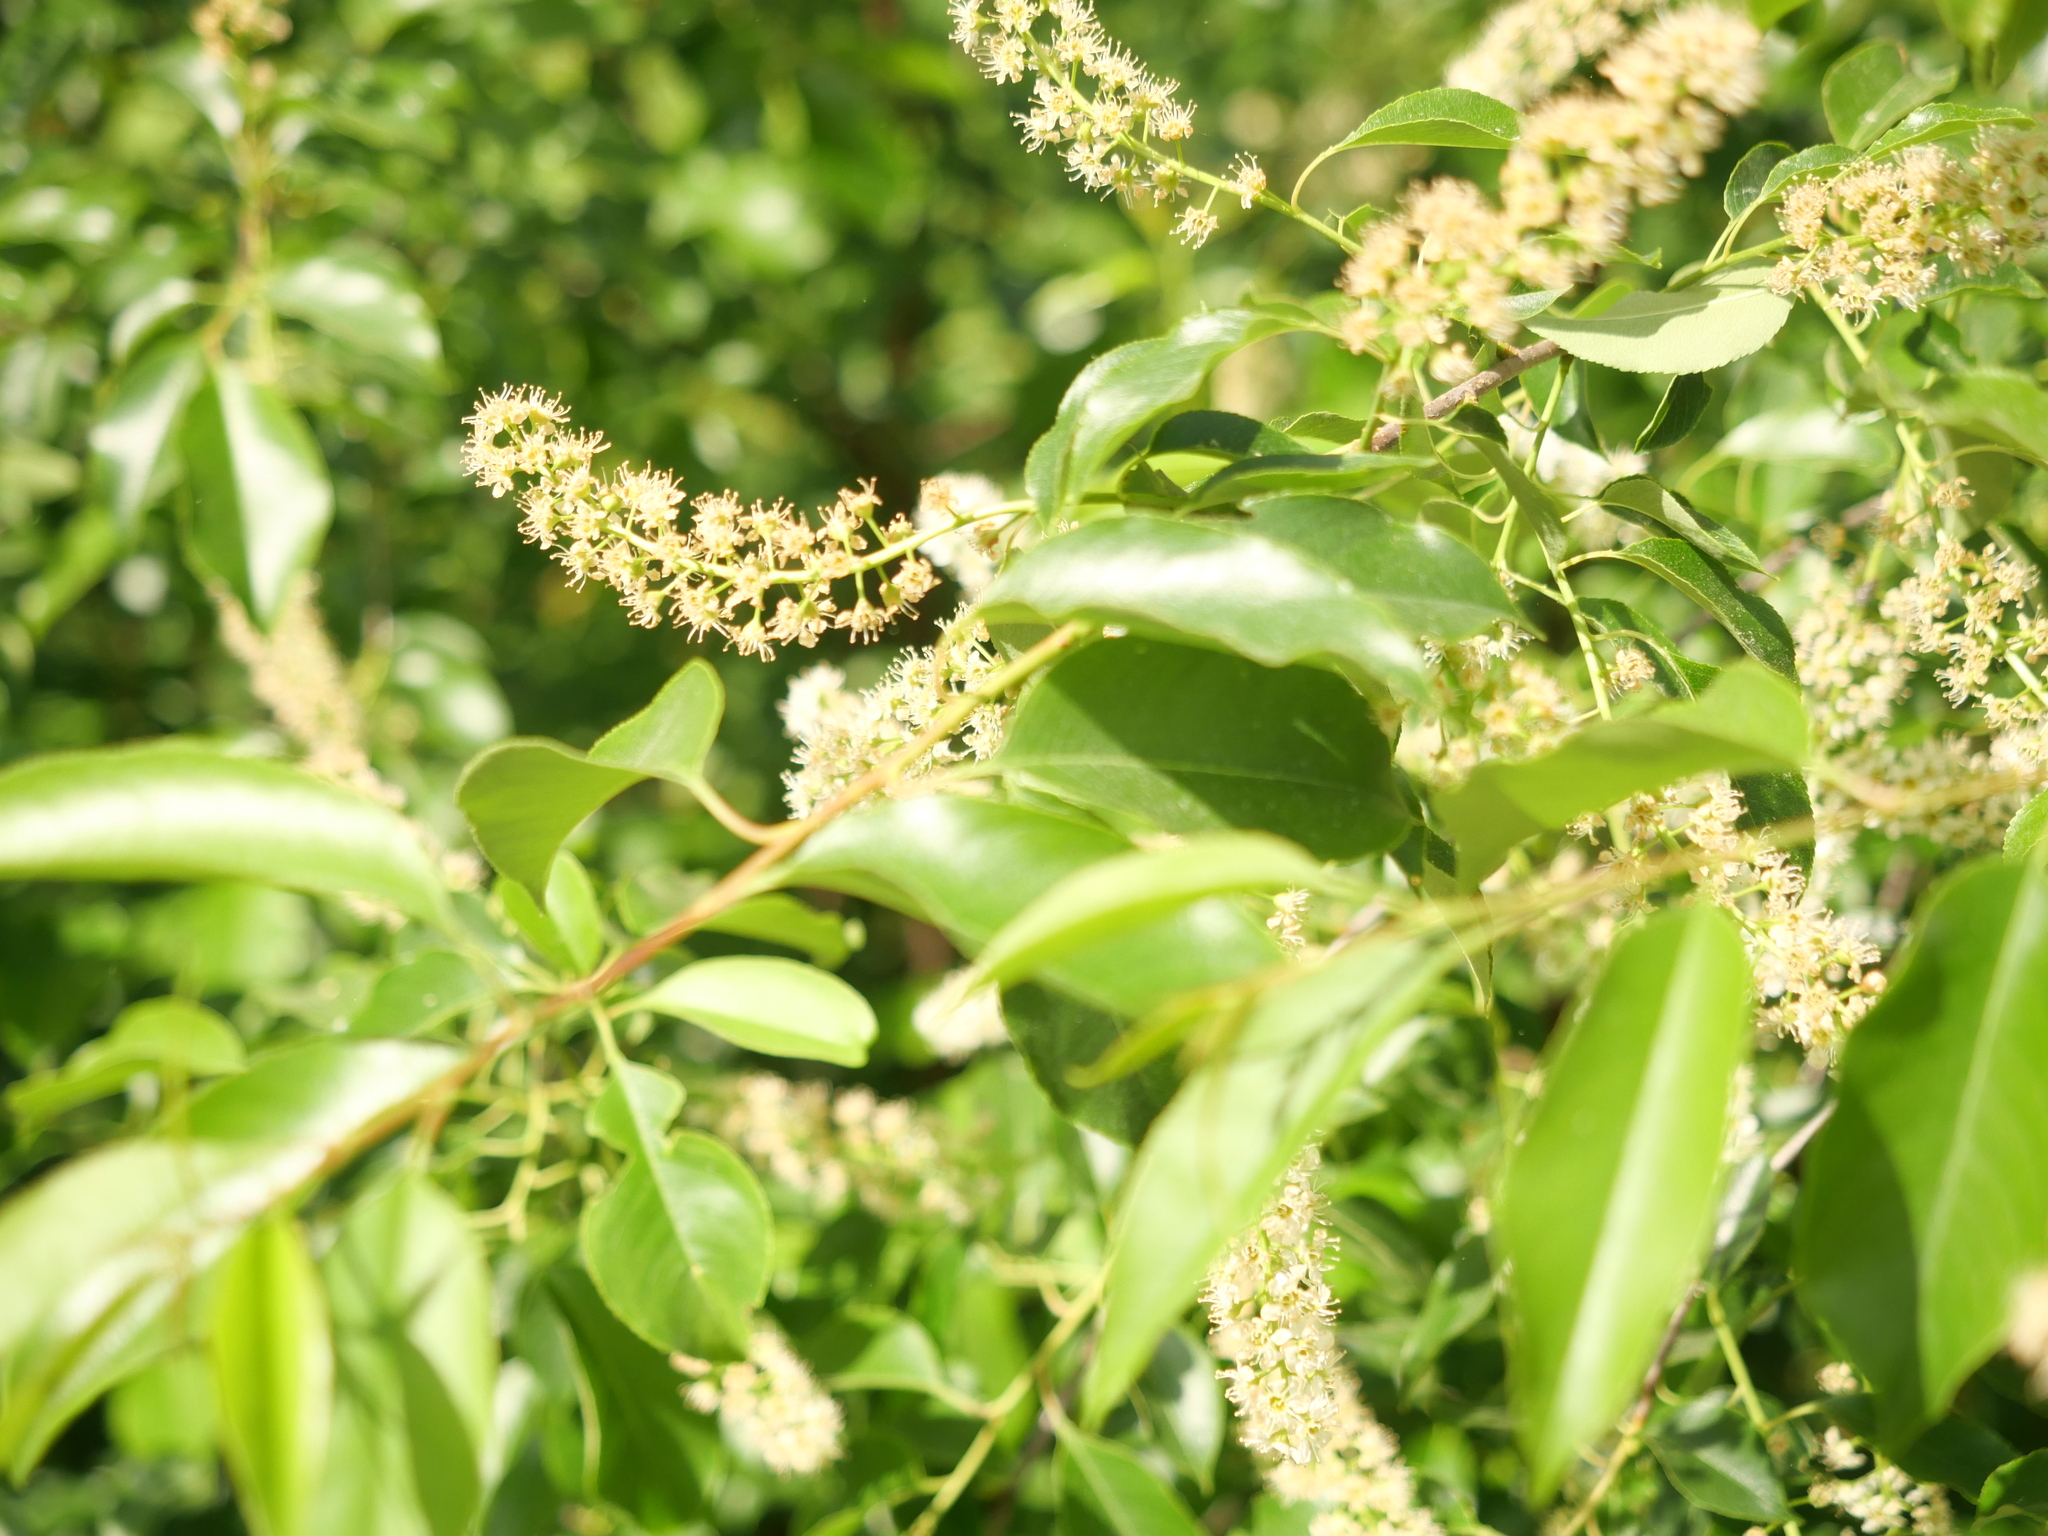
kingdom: Plantae
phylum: Tracheophyta
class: Magnoliopsida
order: Rosales
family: Rosaceae
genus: Prunus
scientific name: Prunus serotina
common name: Black cherry
